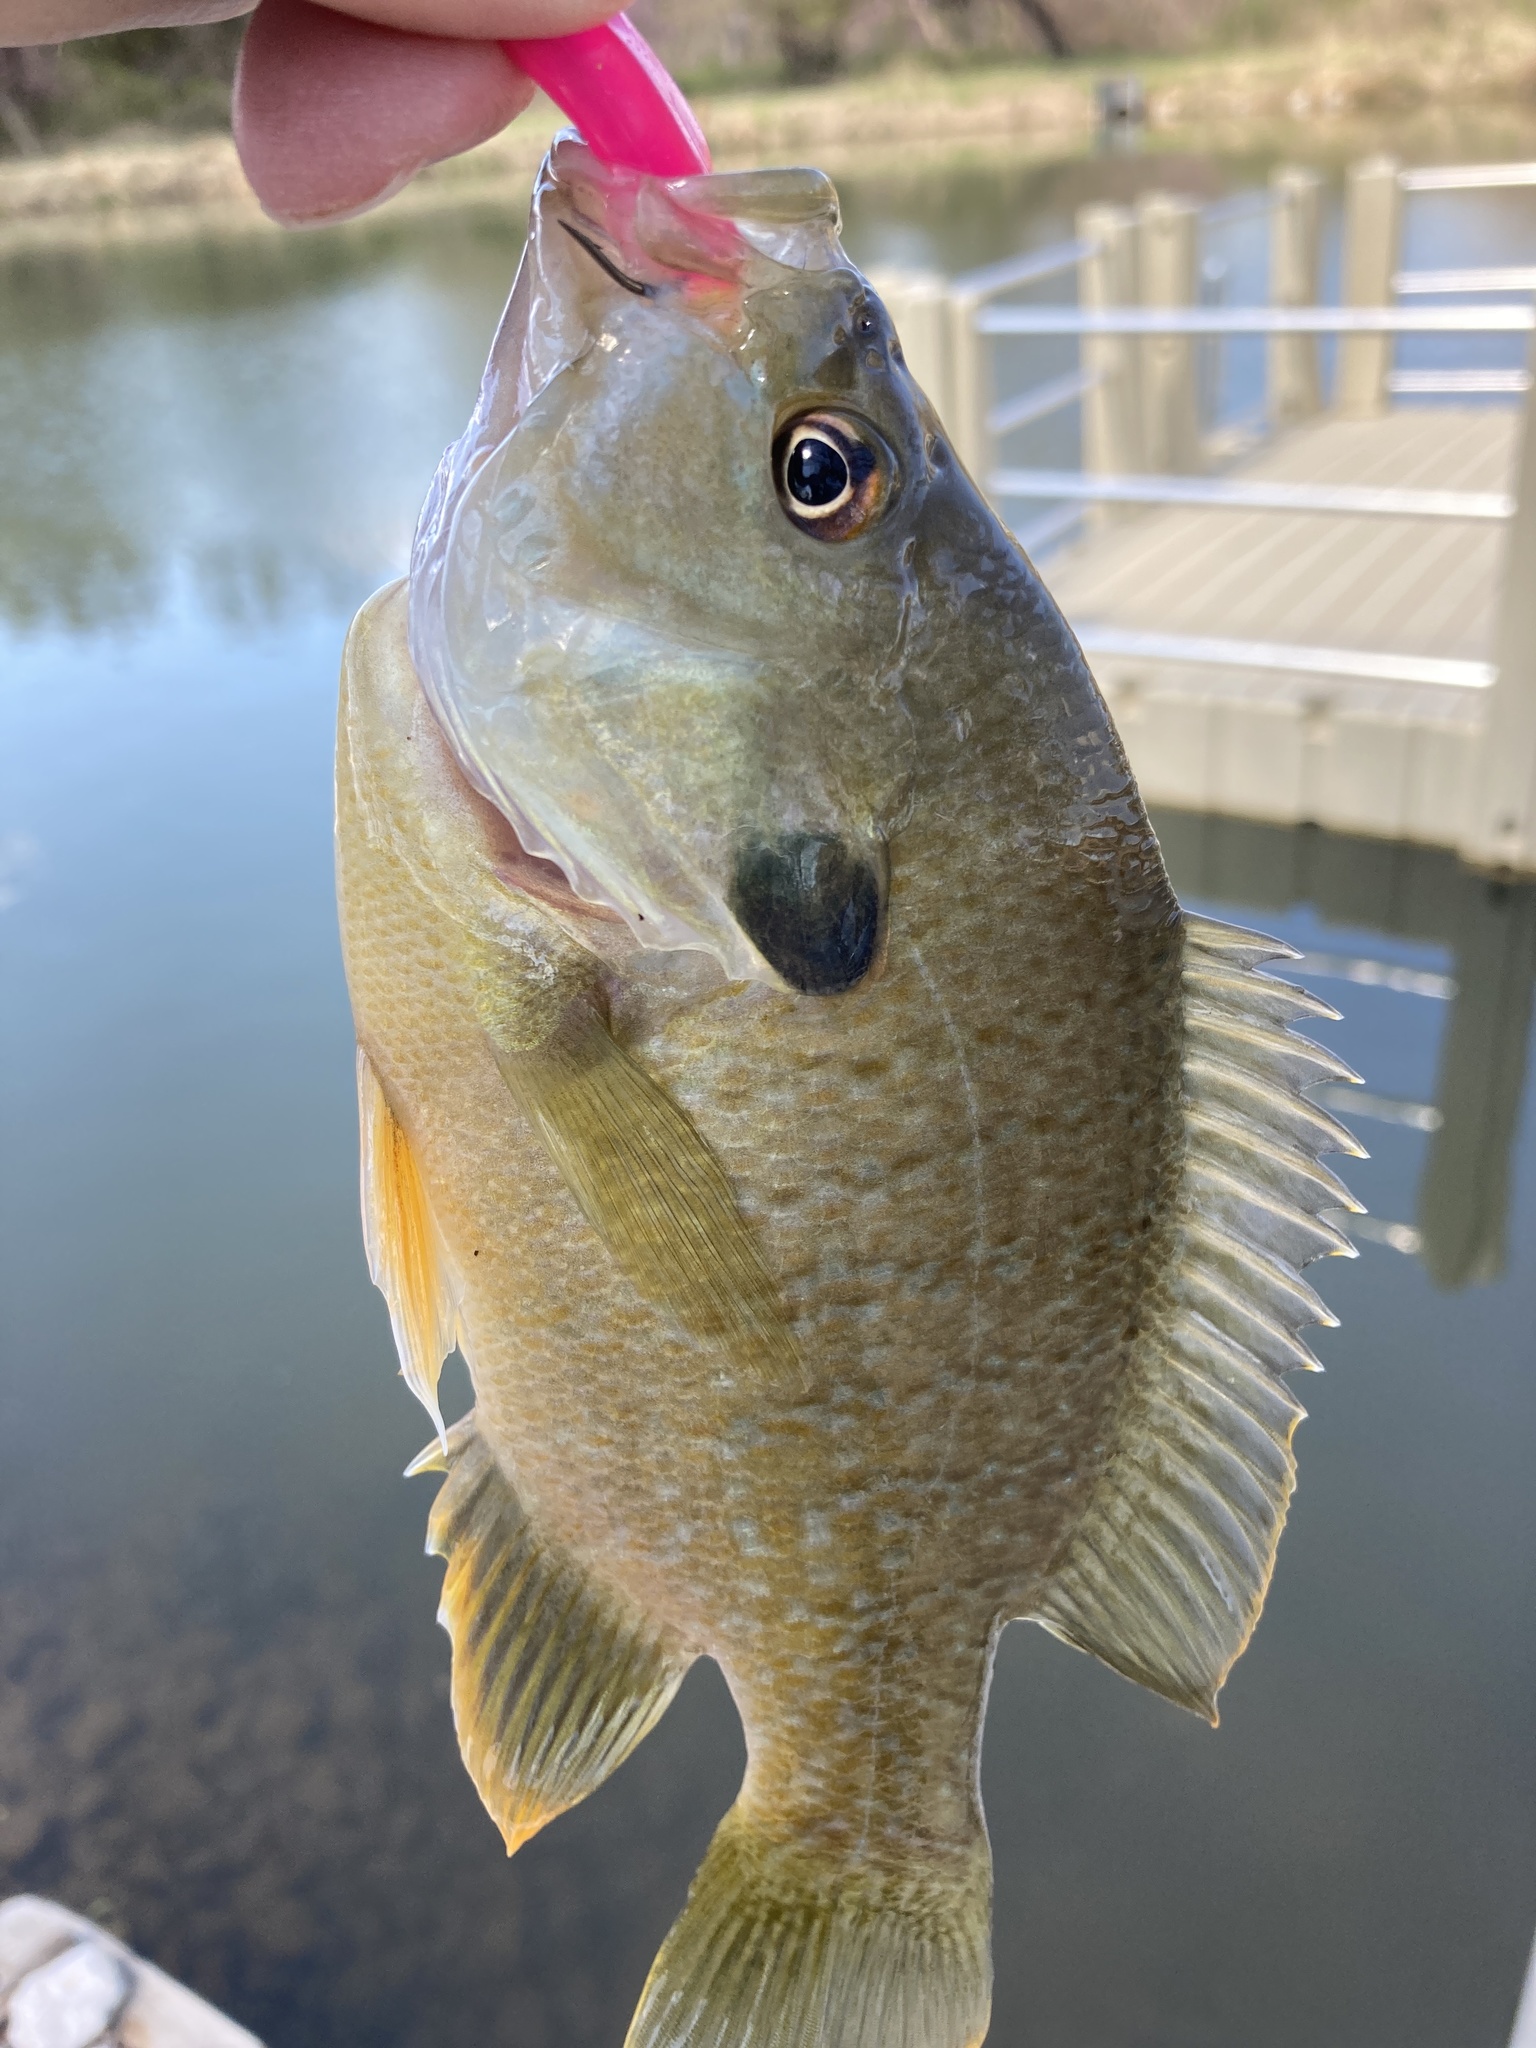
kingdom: Animalia
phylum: Chordata
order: Perciformes
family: Centrarchidae
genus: Lepomis
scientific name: Lepomis
